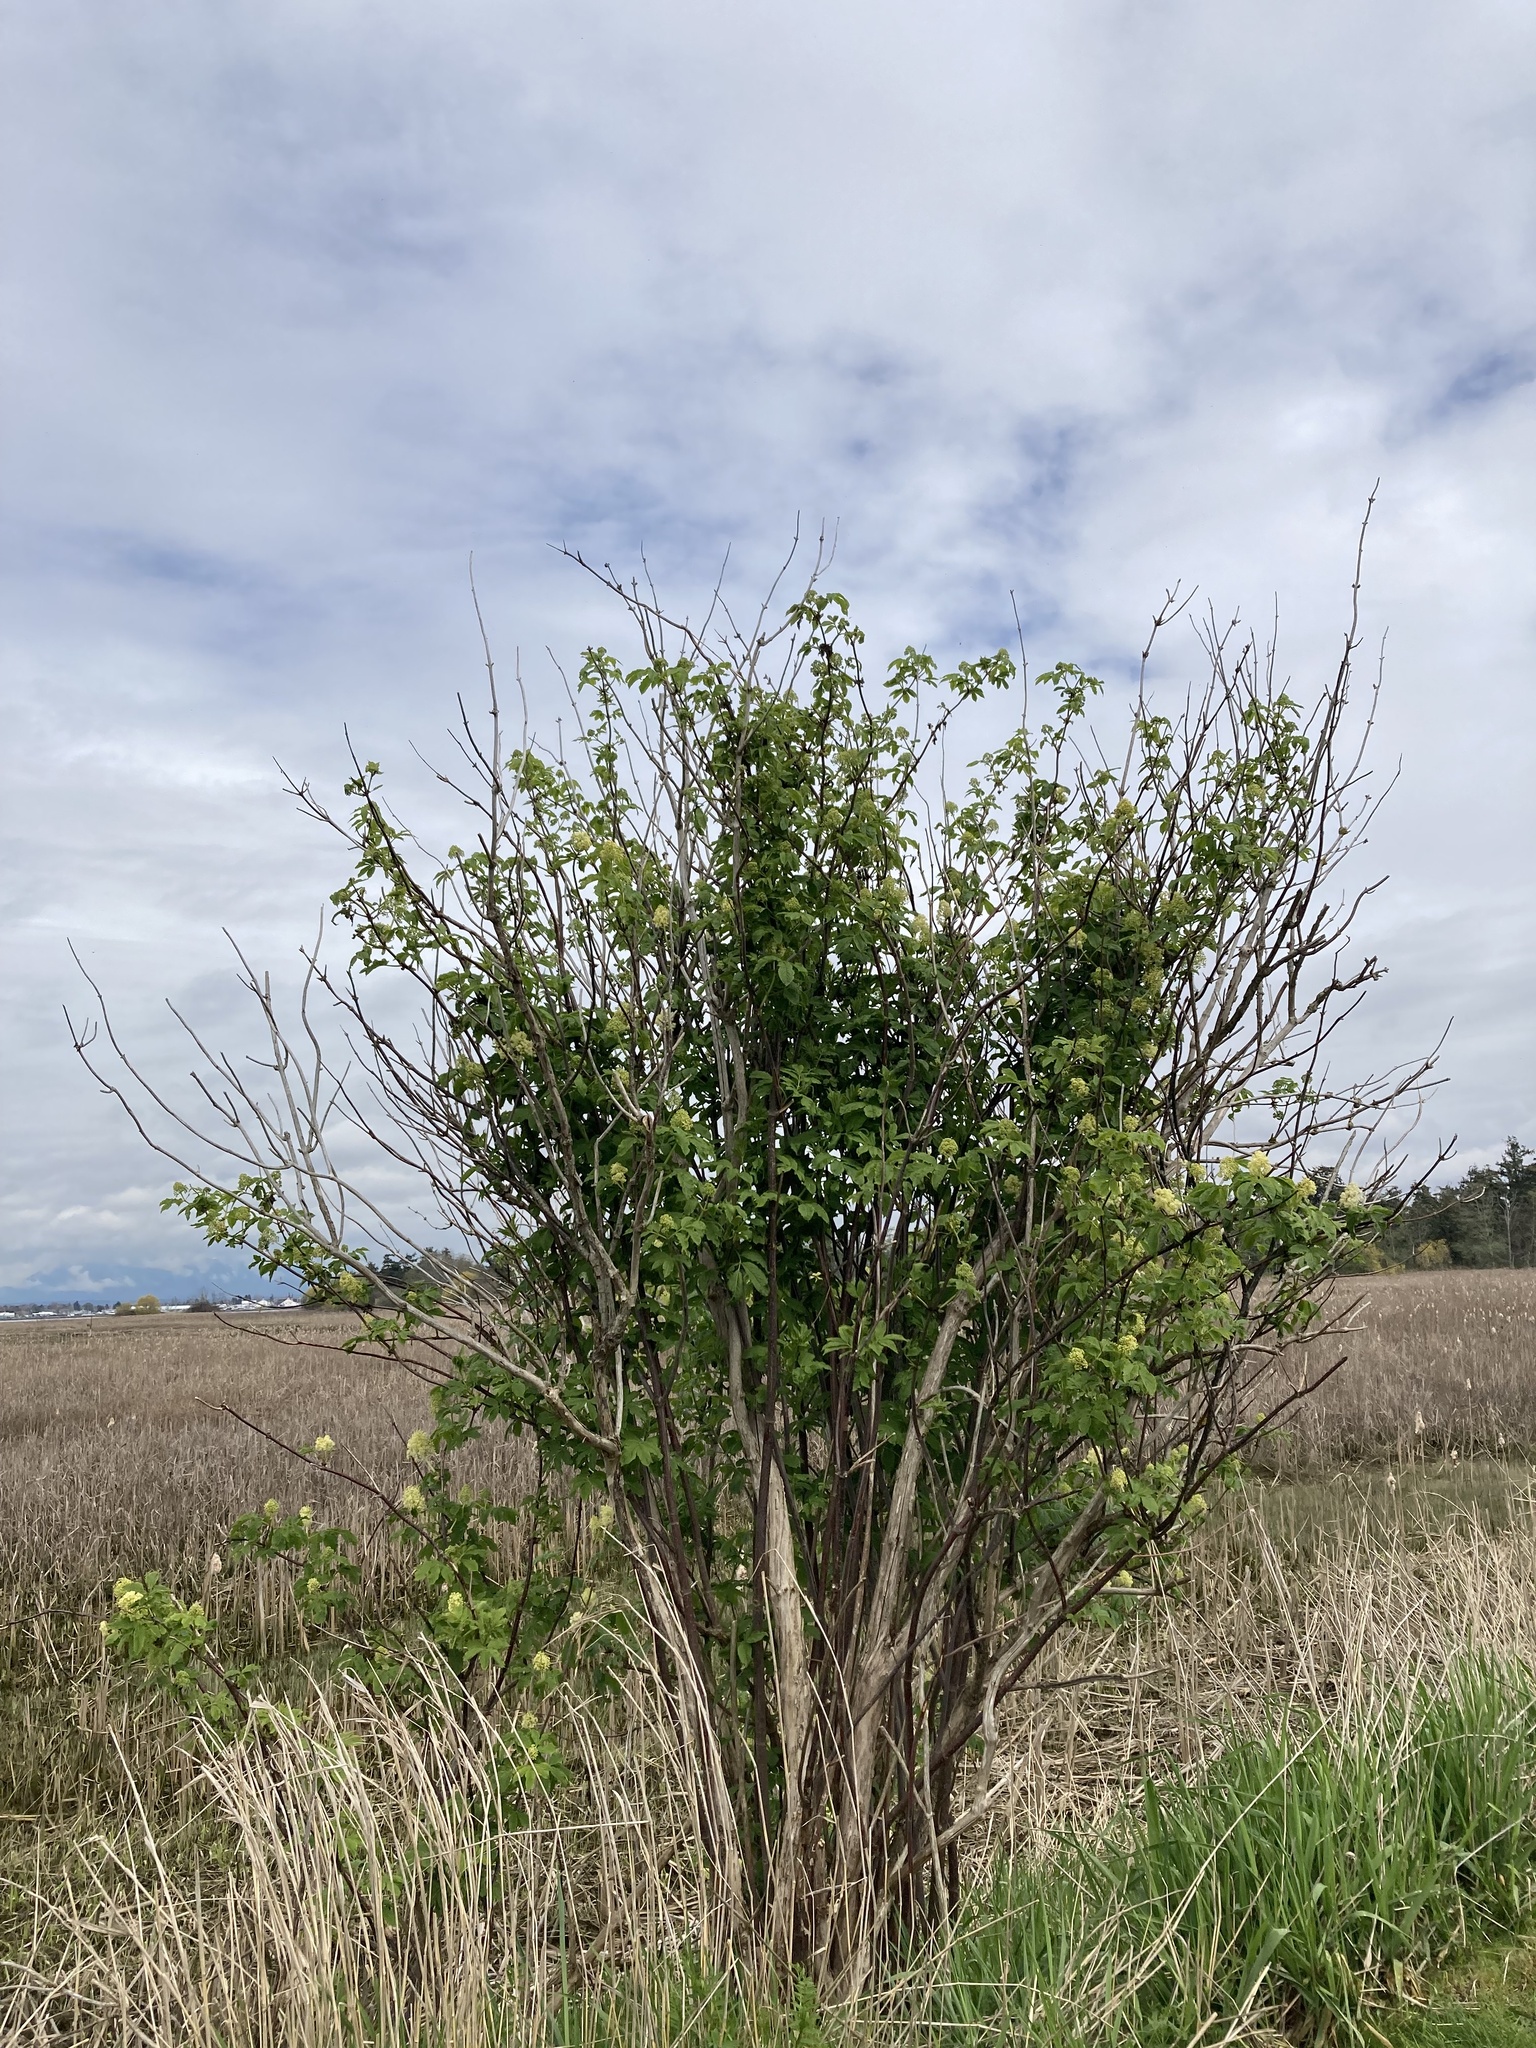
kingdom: Plantae
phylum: Tracheophyta
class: Magnoliopsida
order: Dipsacales
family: Viburnaceae
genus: Sambucus
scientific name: Sambucus racemosa
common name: Red-berried elder
